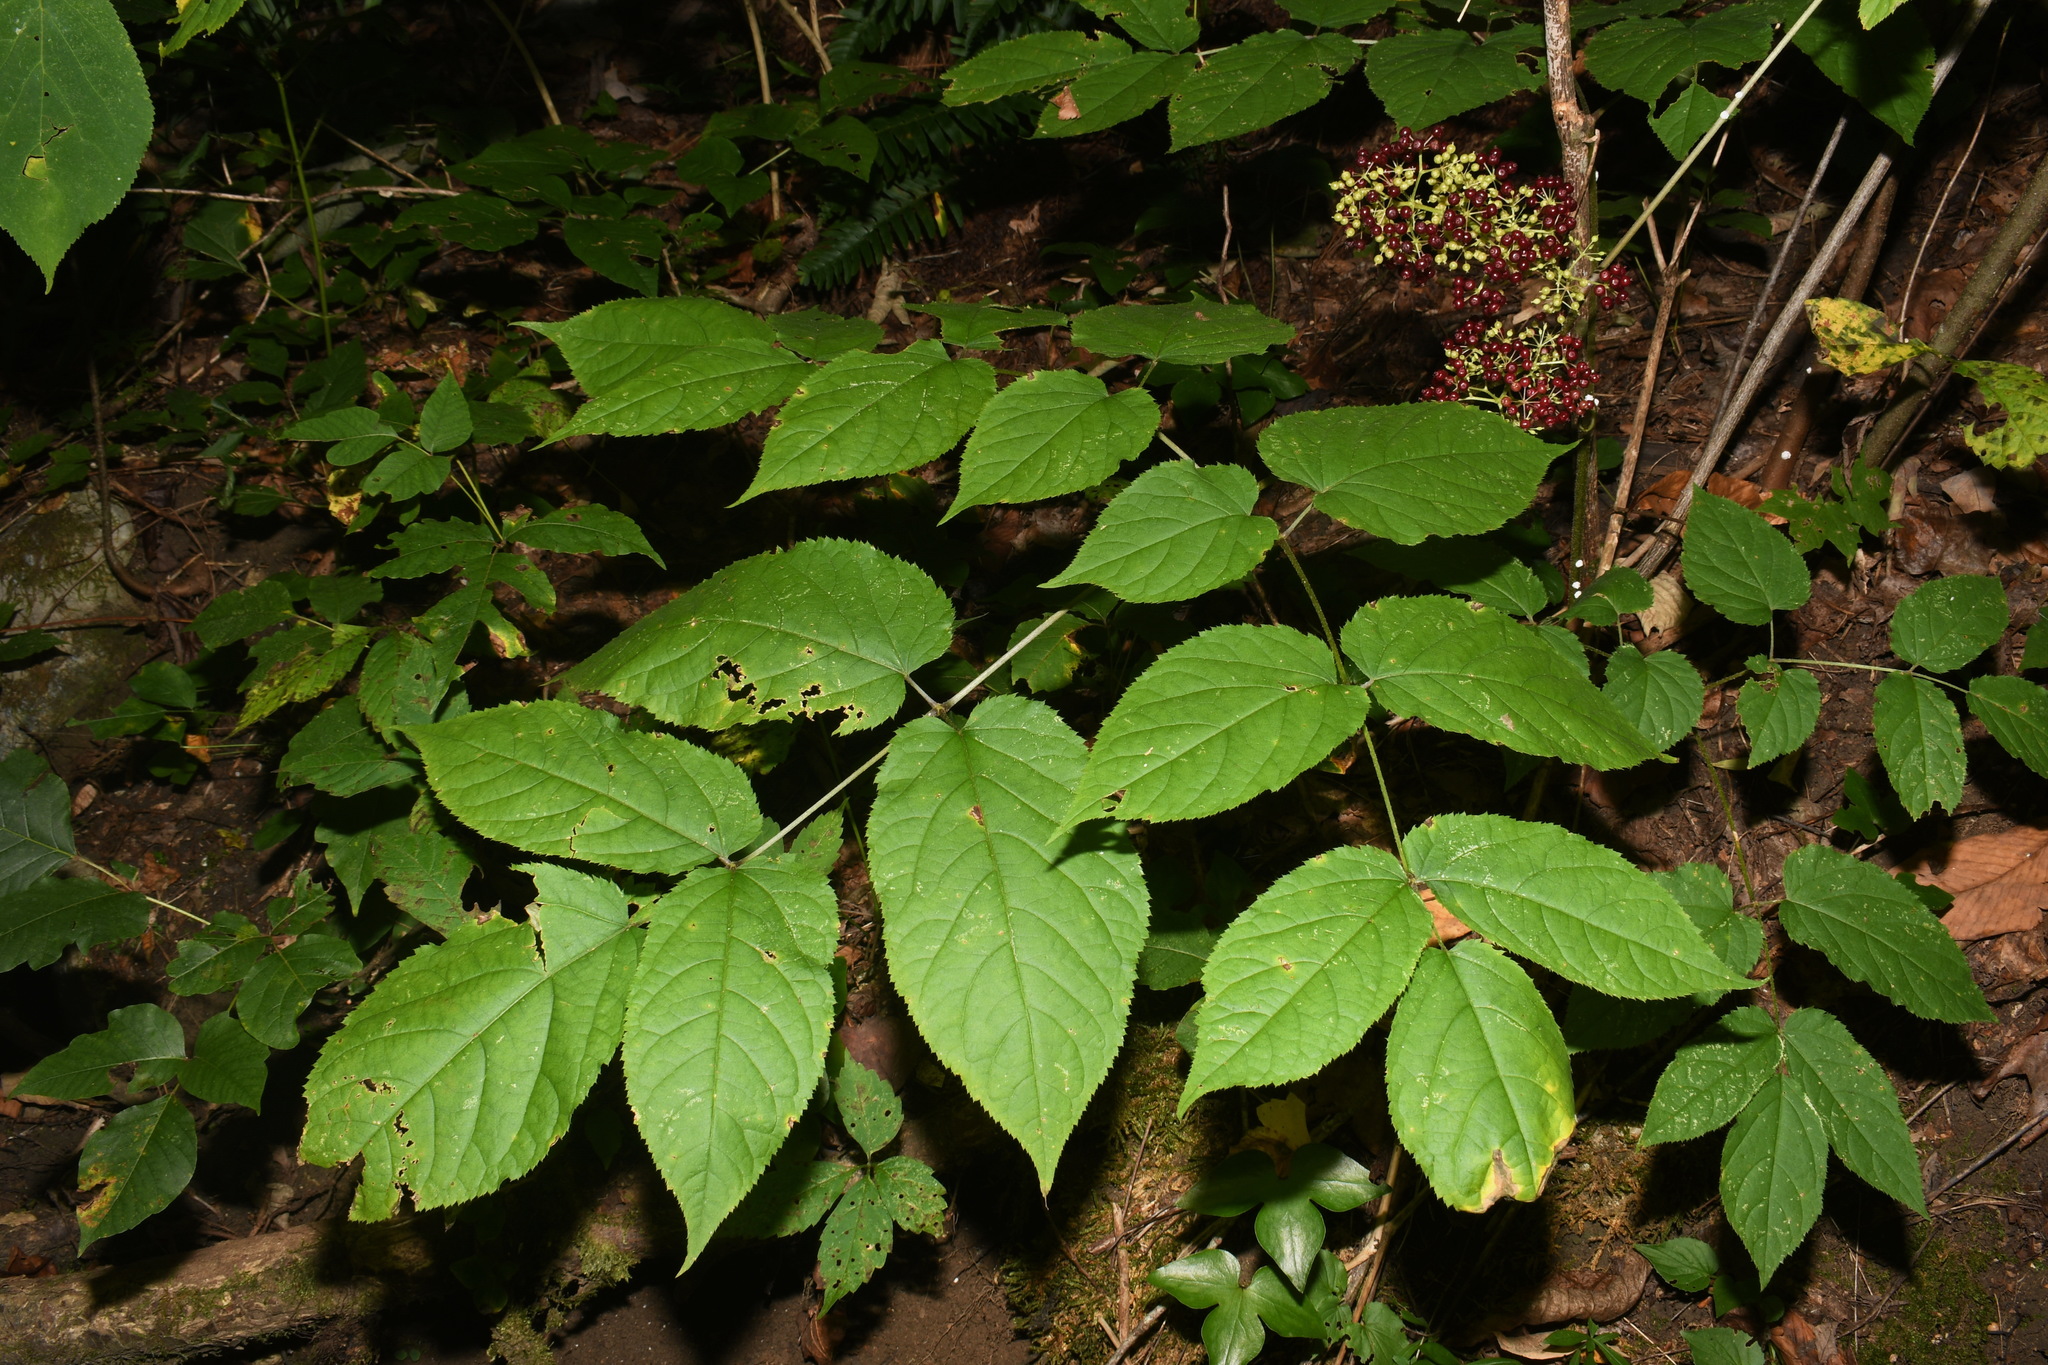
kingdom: Plantae
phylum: Tracheophyta
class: Magnoliopsida
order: Apiales
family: Araliaceae
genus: Aralia
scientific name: Aralia racemosa
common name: American-spikenard
